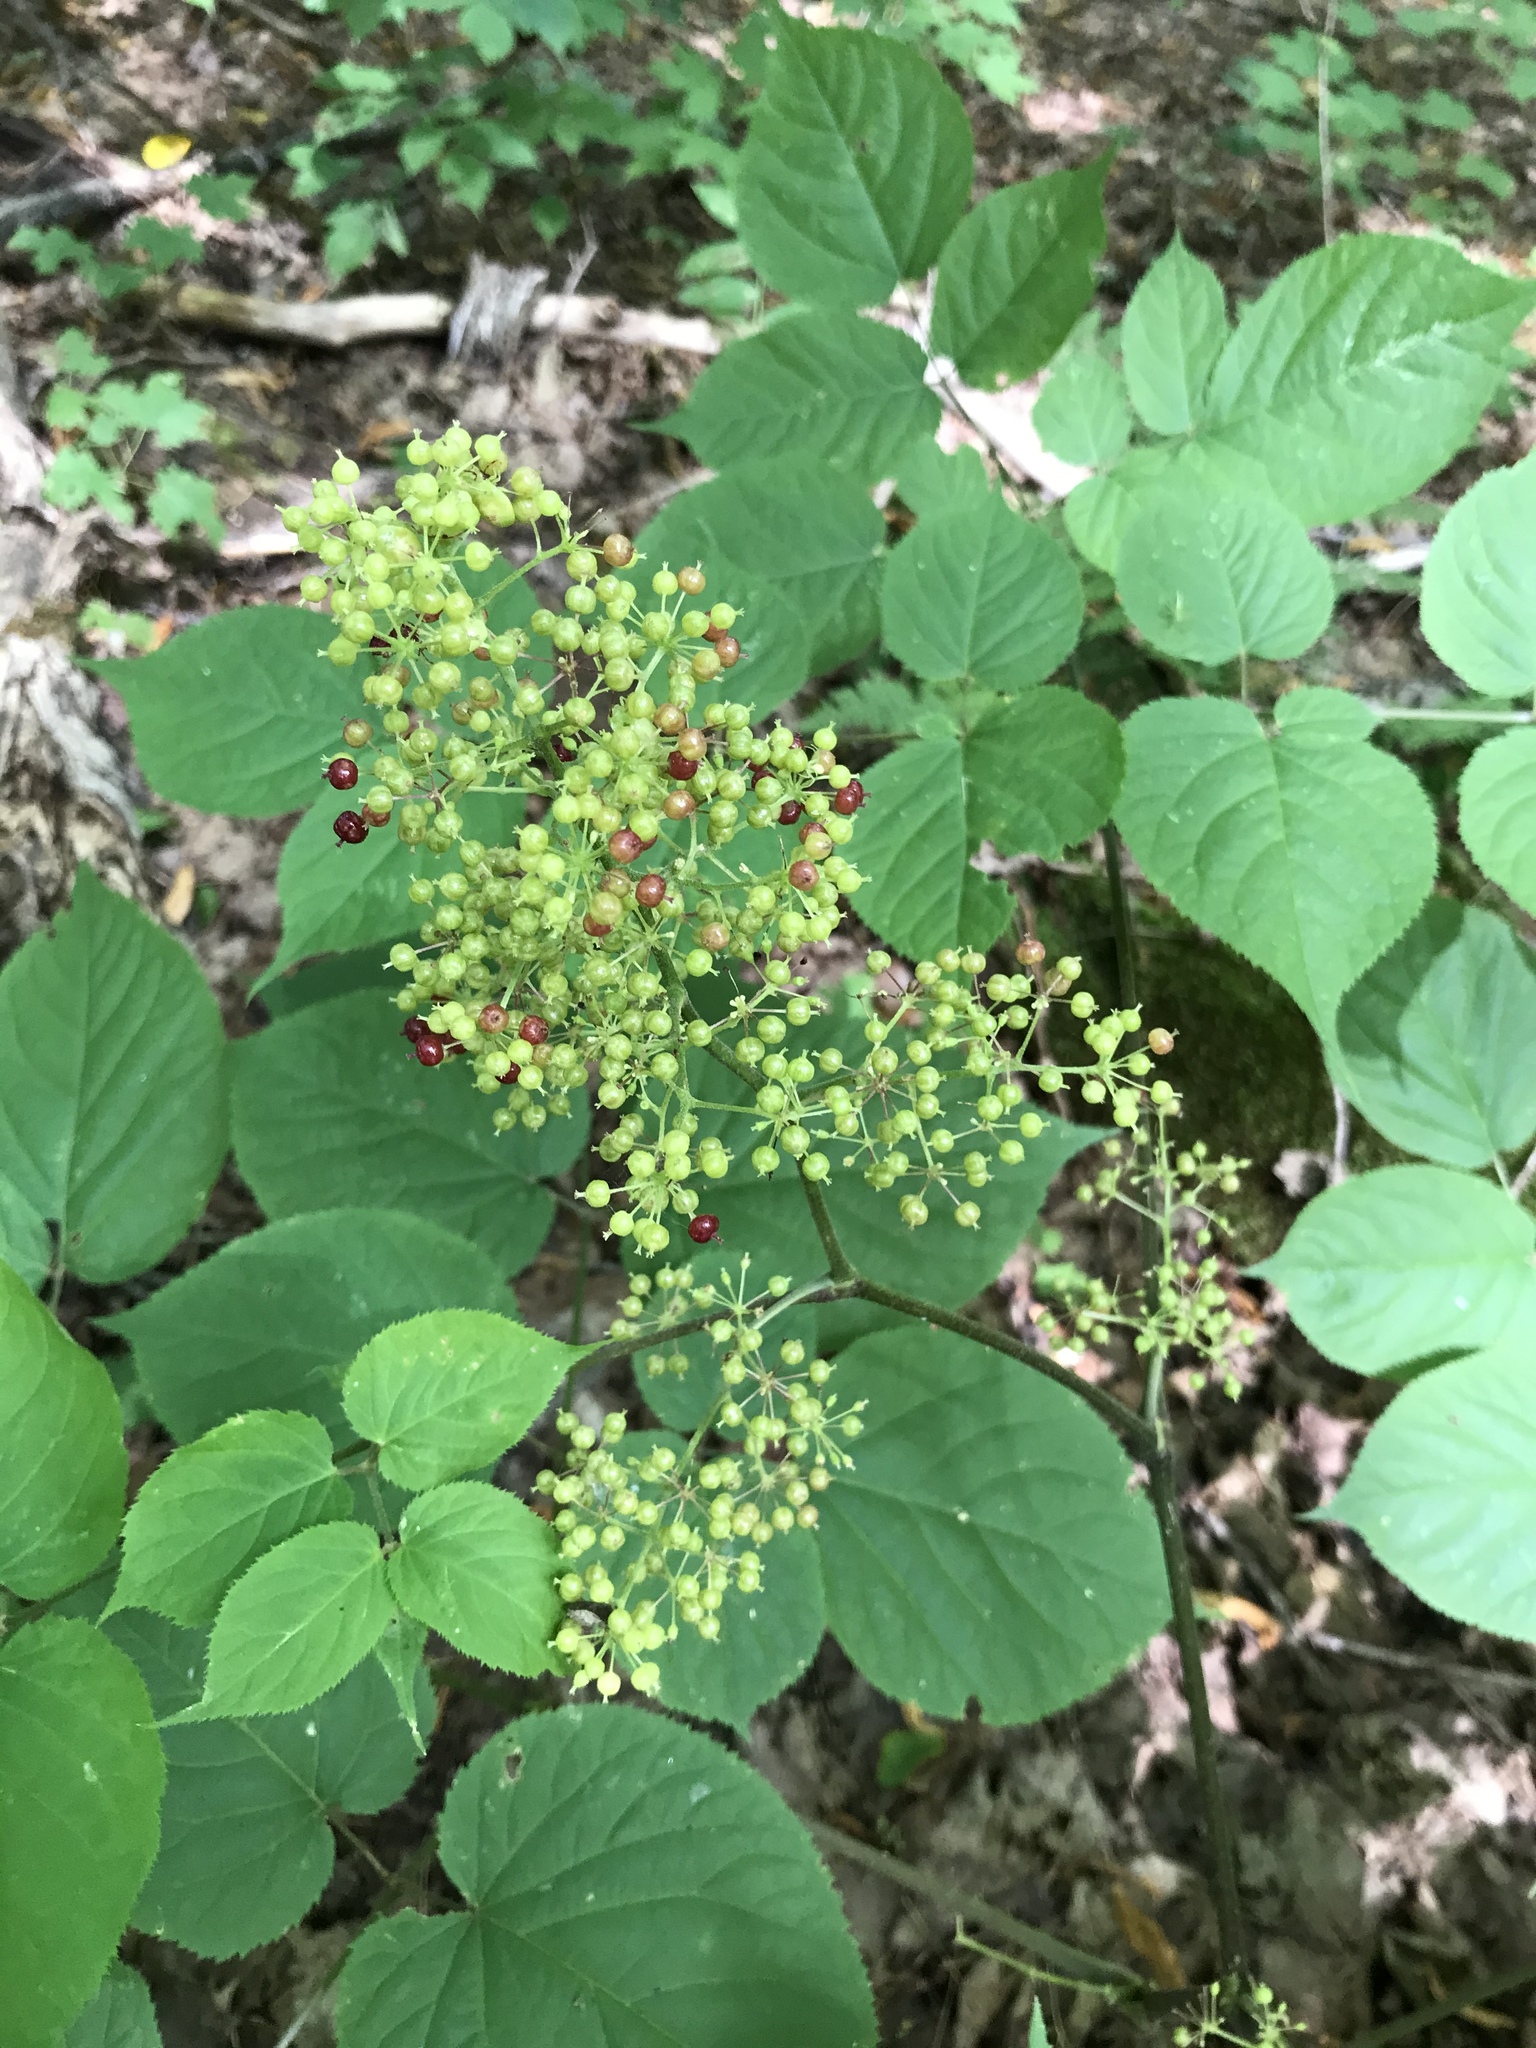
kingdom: Plantae
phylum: Tracheophyta
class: Magnoliopsida
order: Apiales
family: Araliaceae
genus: Aralia
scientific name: Aralia racemosa
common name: American-spikenard
